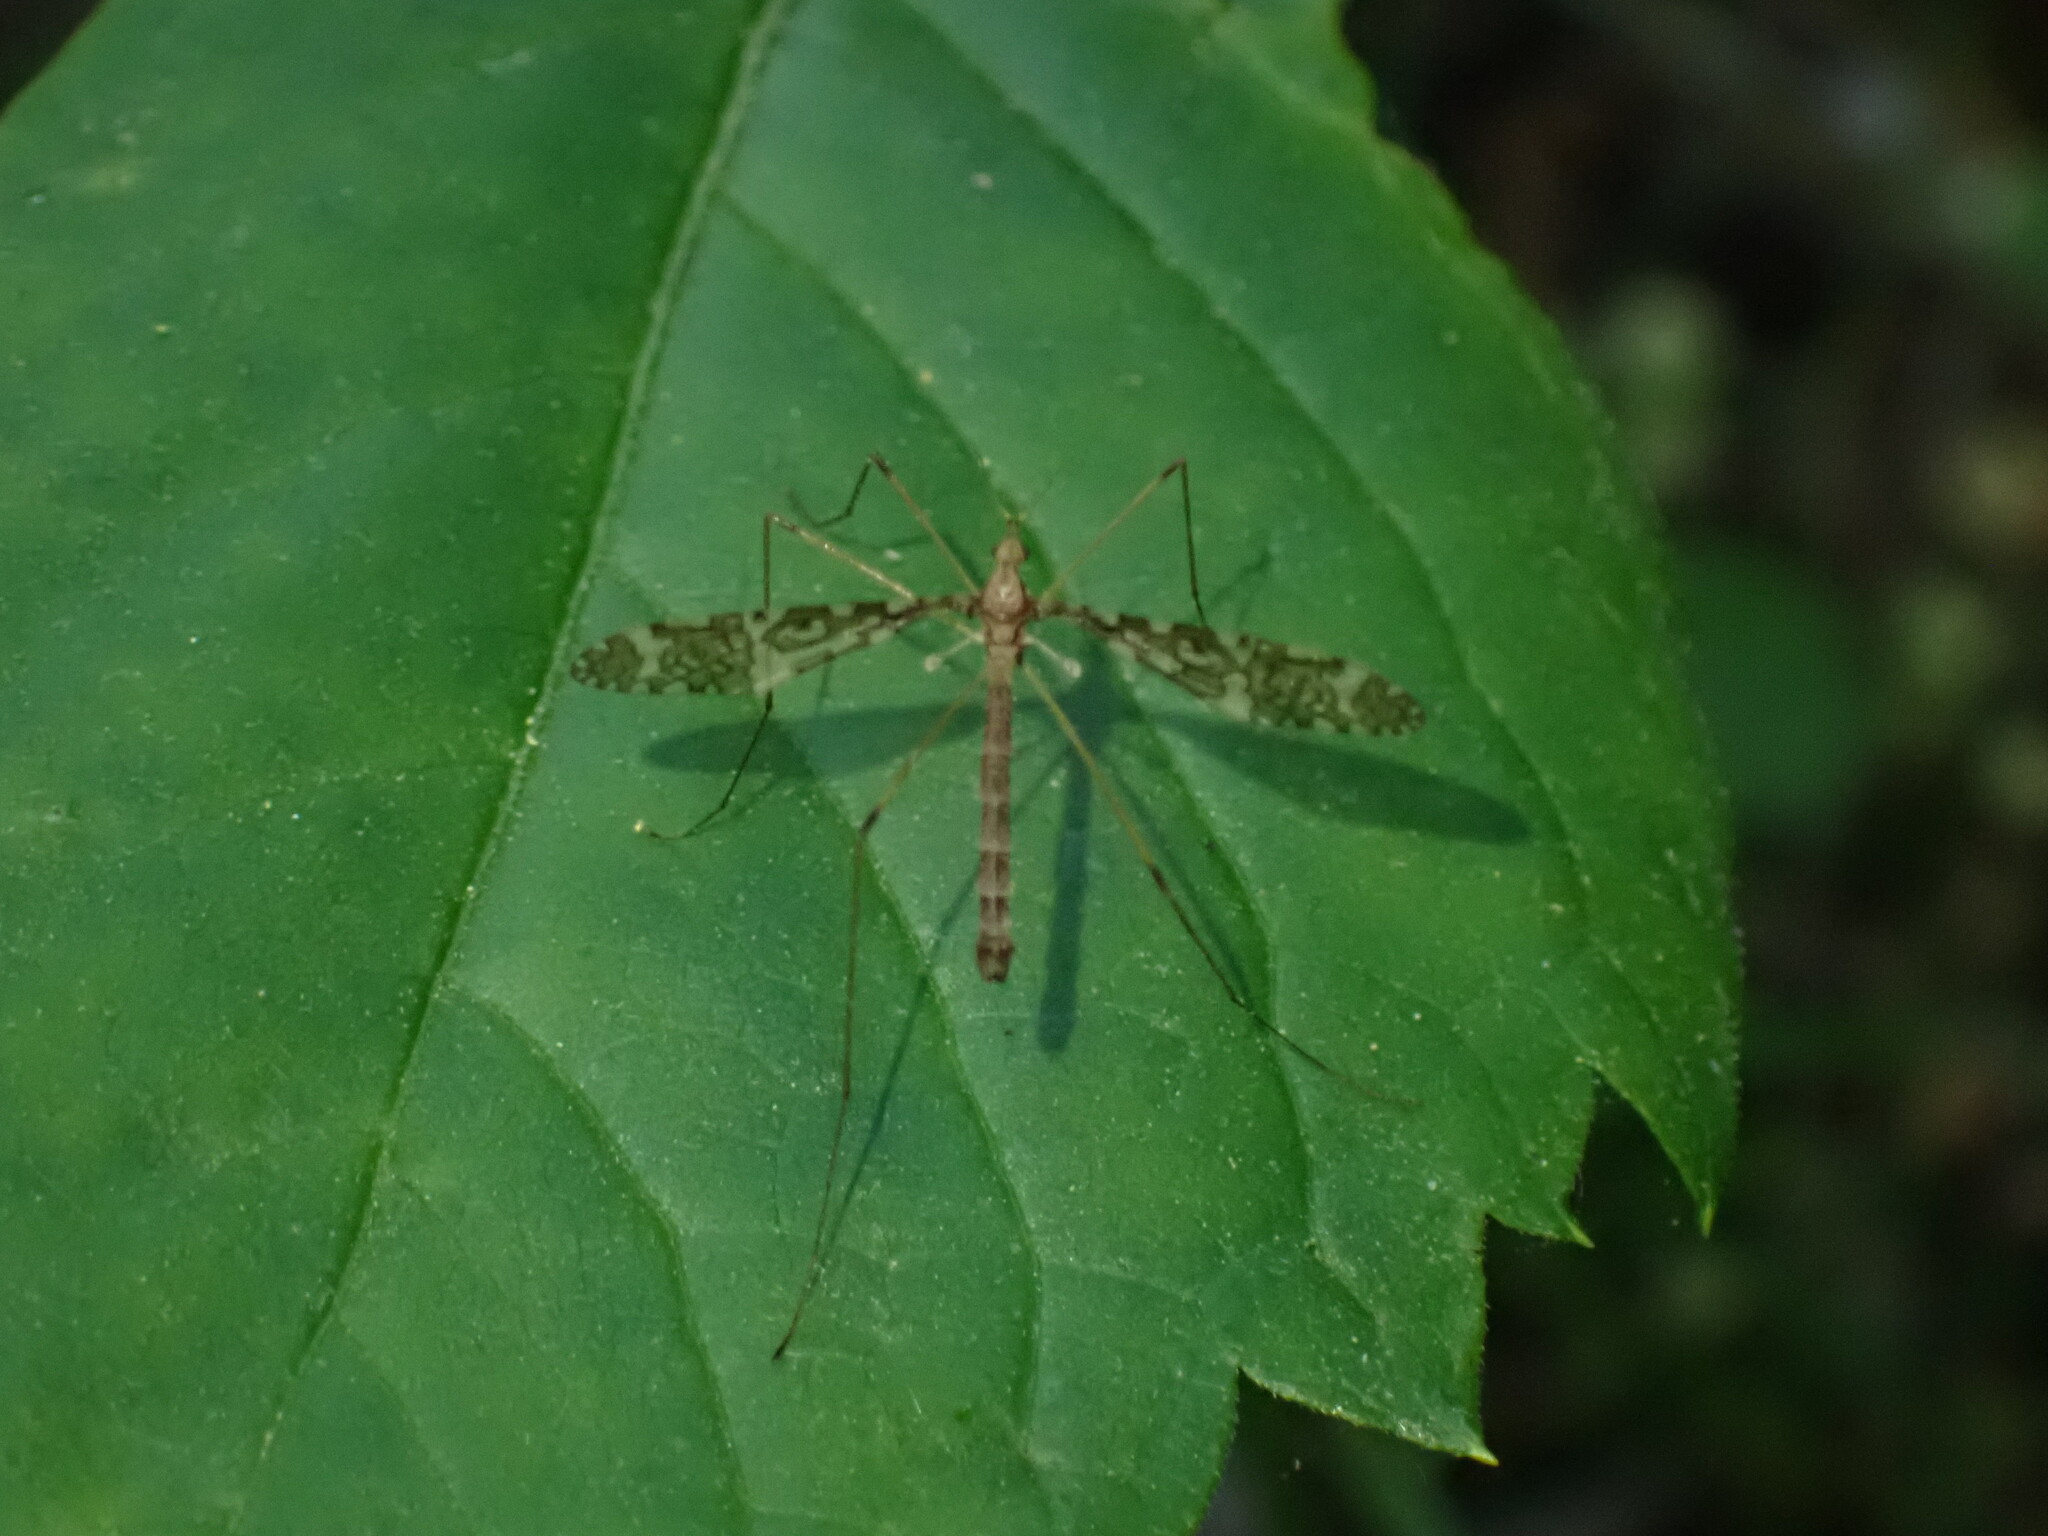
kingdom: Animalia
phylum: Arthropoda
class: Insecta
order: Diptera
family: Limoniidae
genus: Epiphragma
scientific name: Epiphragma fasciapenne
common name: Band-winged crane fly
